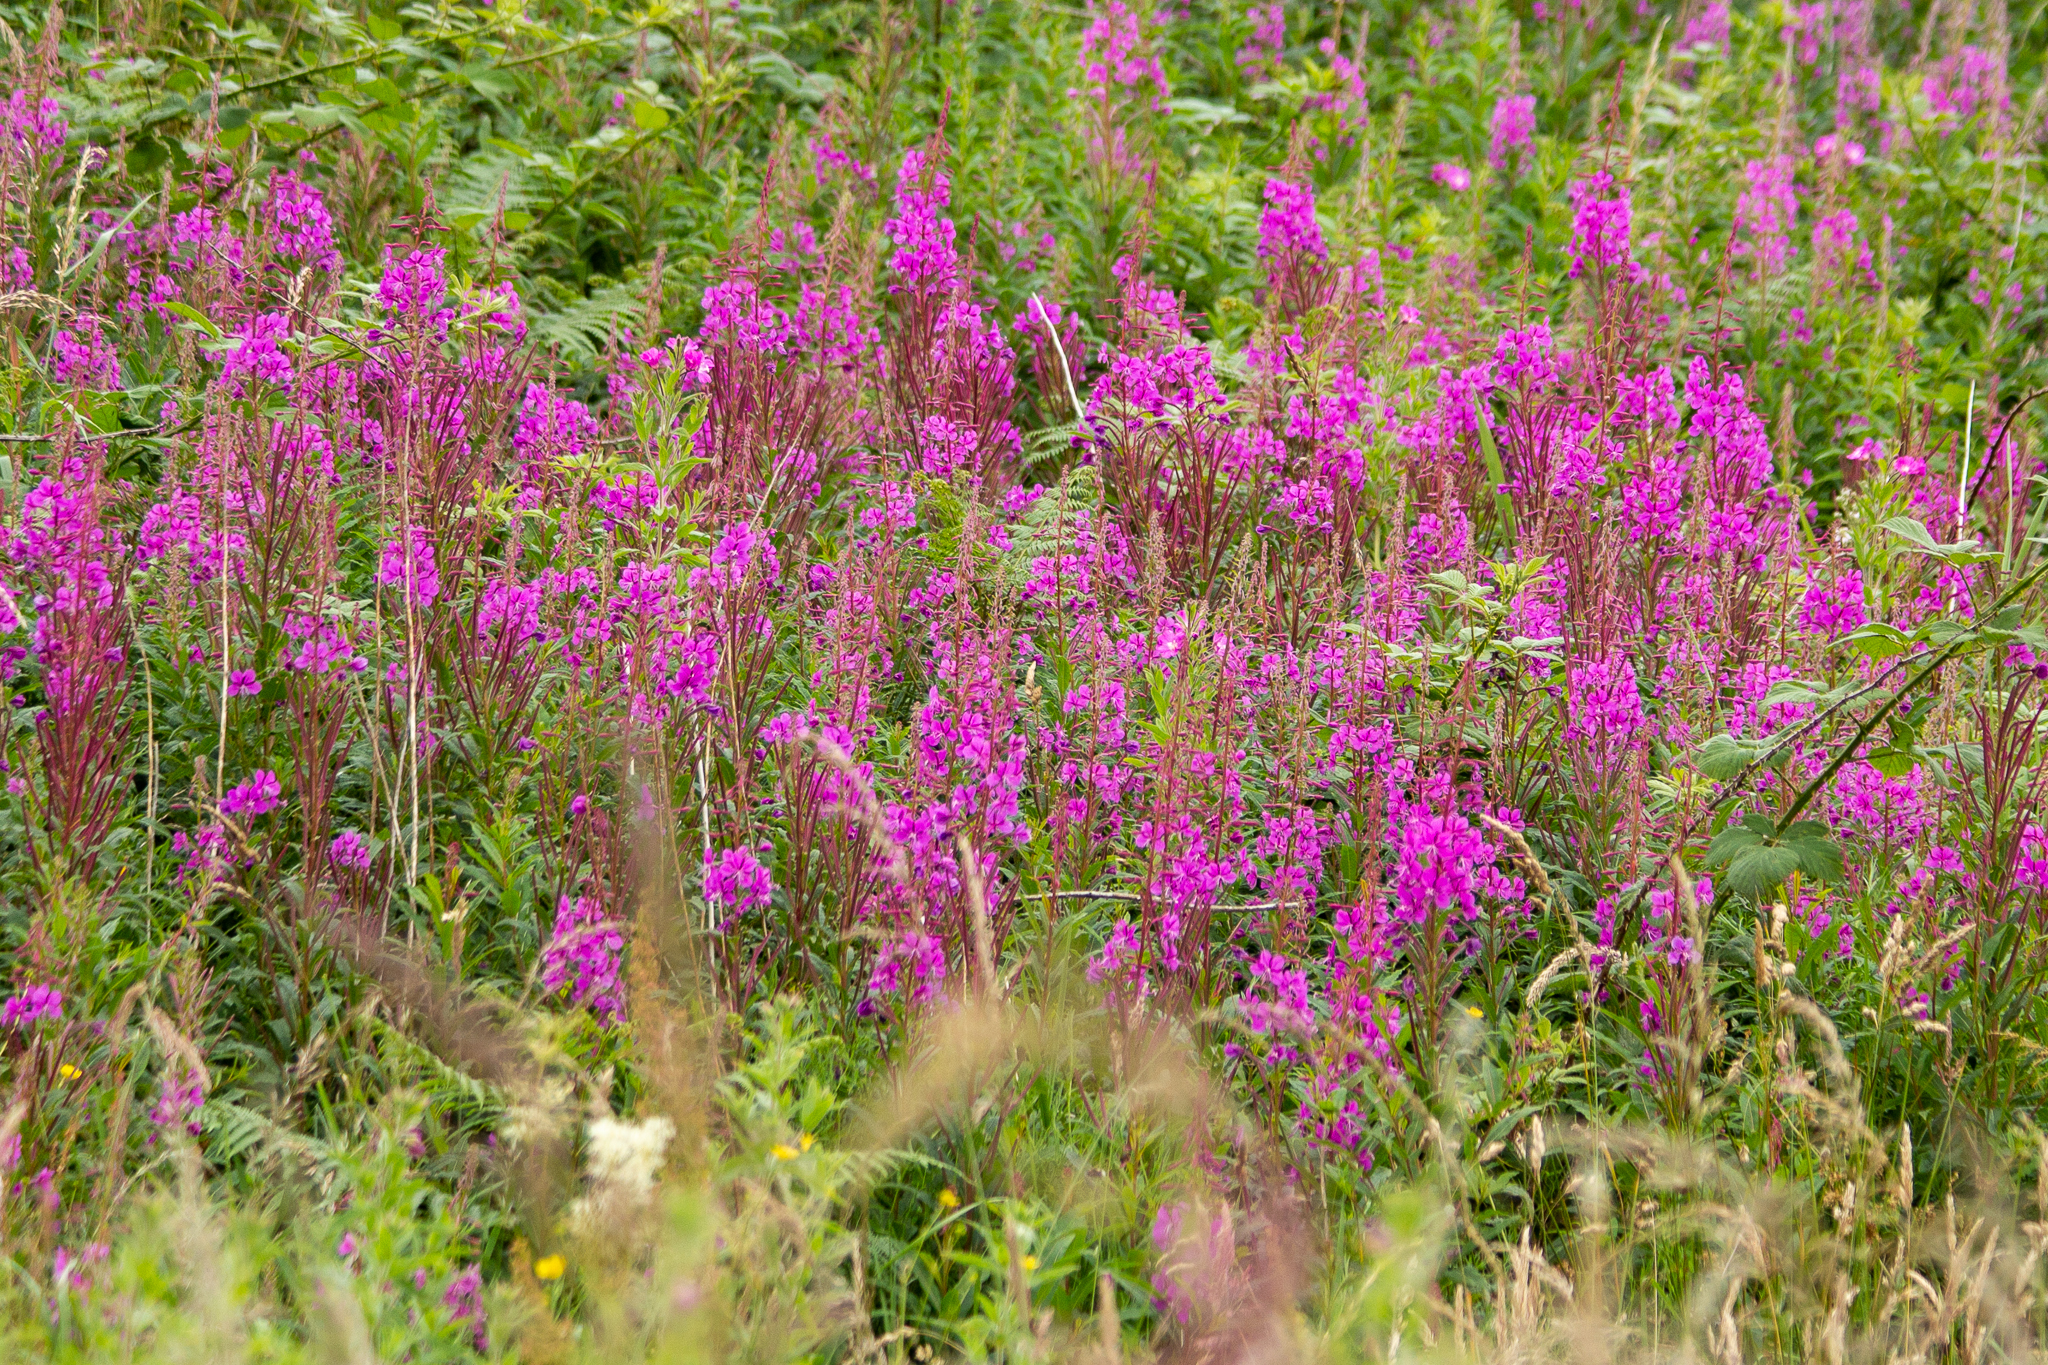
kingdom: Plantae
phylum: Tracheophyta
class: Magnoliopsida
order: Myrtales
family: Onagraceae
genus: Chamaenerion
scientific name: Chamaenerion angustifolium
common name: Fireweed
